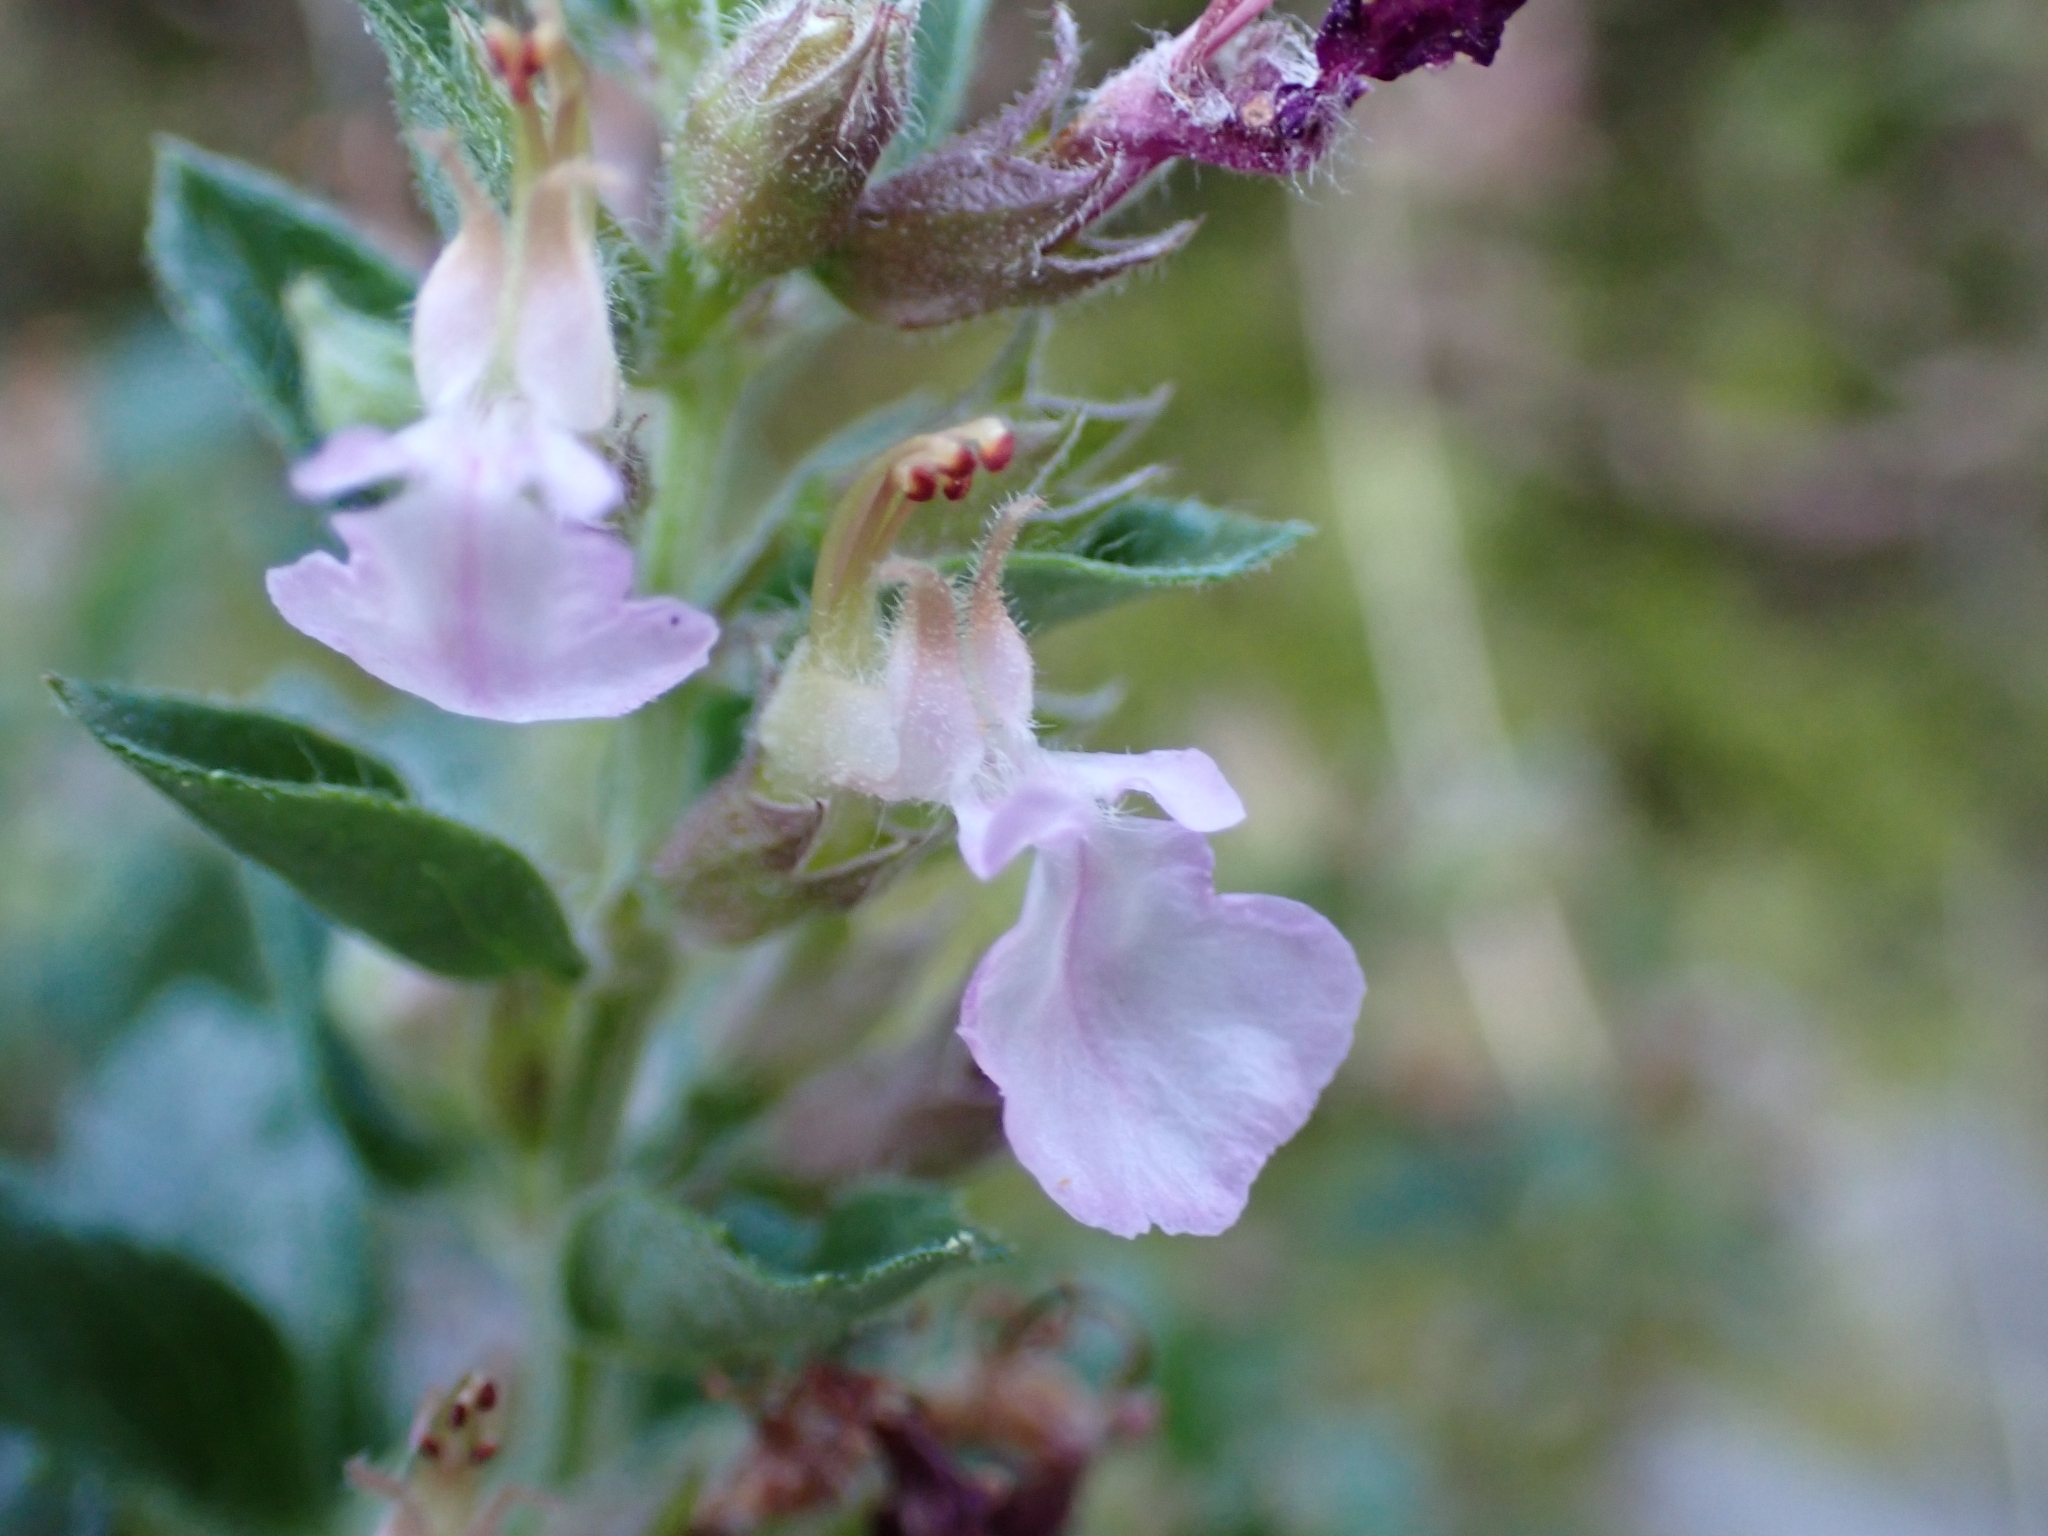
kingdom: Plantae
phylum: Tracheophyta
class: Magnoliopsida
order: Lamiales
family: Lamiaceae
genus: Teucrium
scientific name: Teucrium chamaedrys
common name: Wall germander
